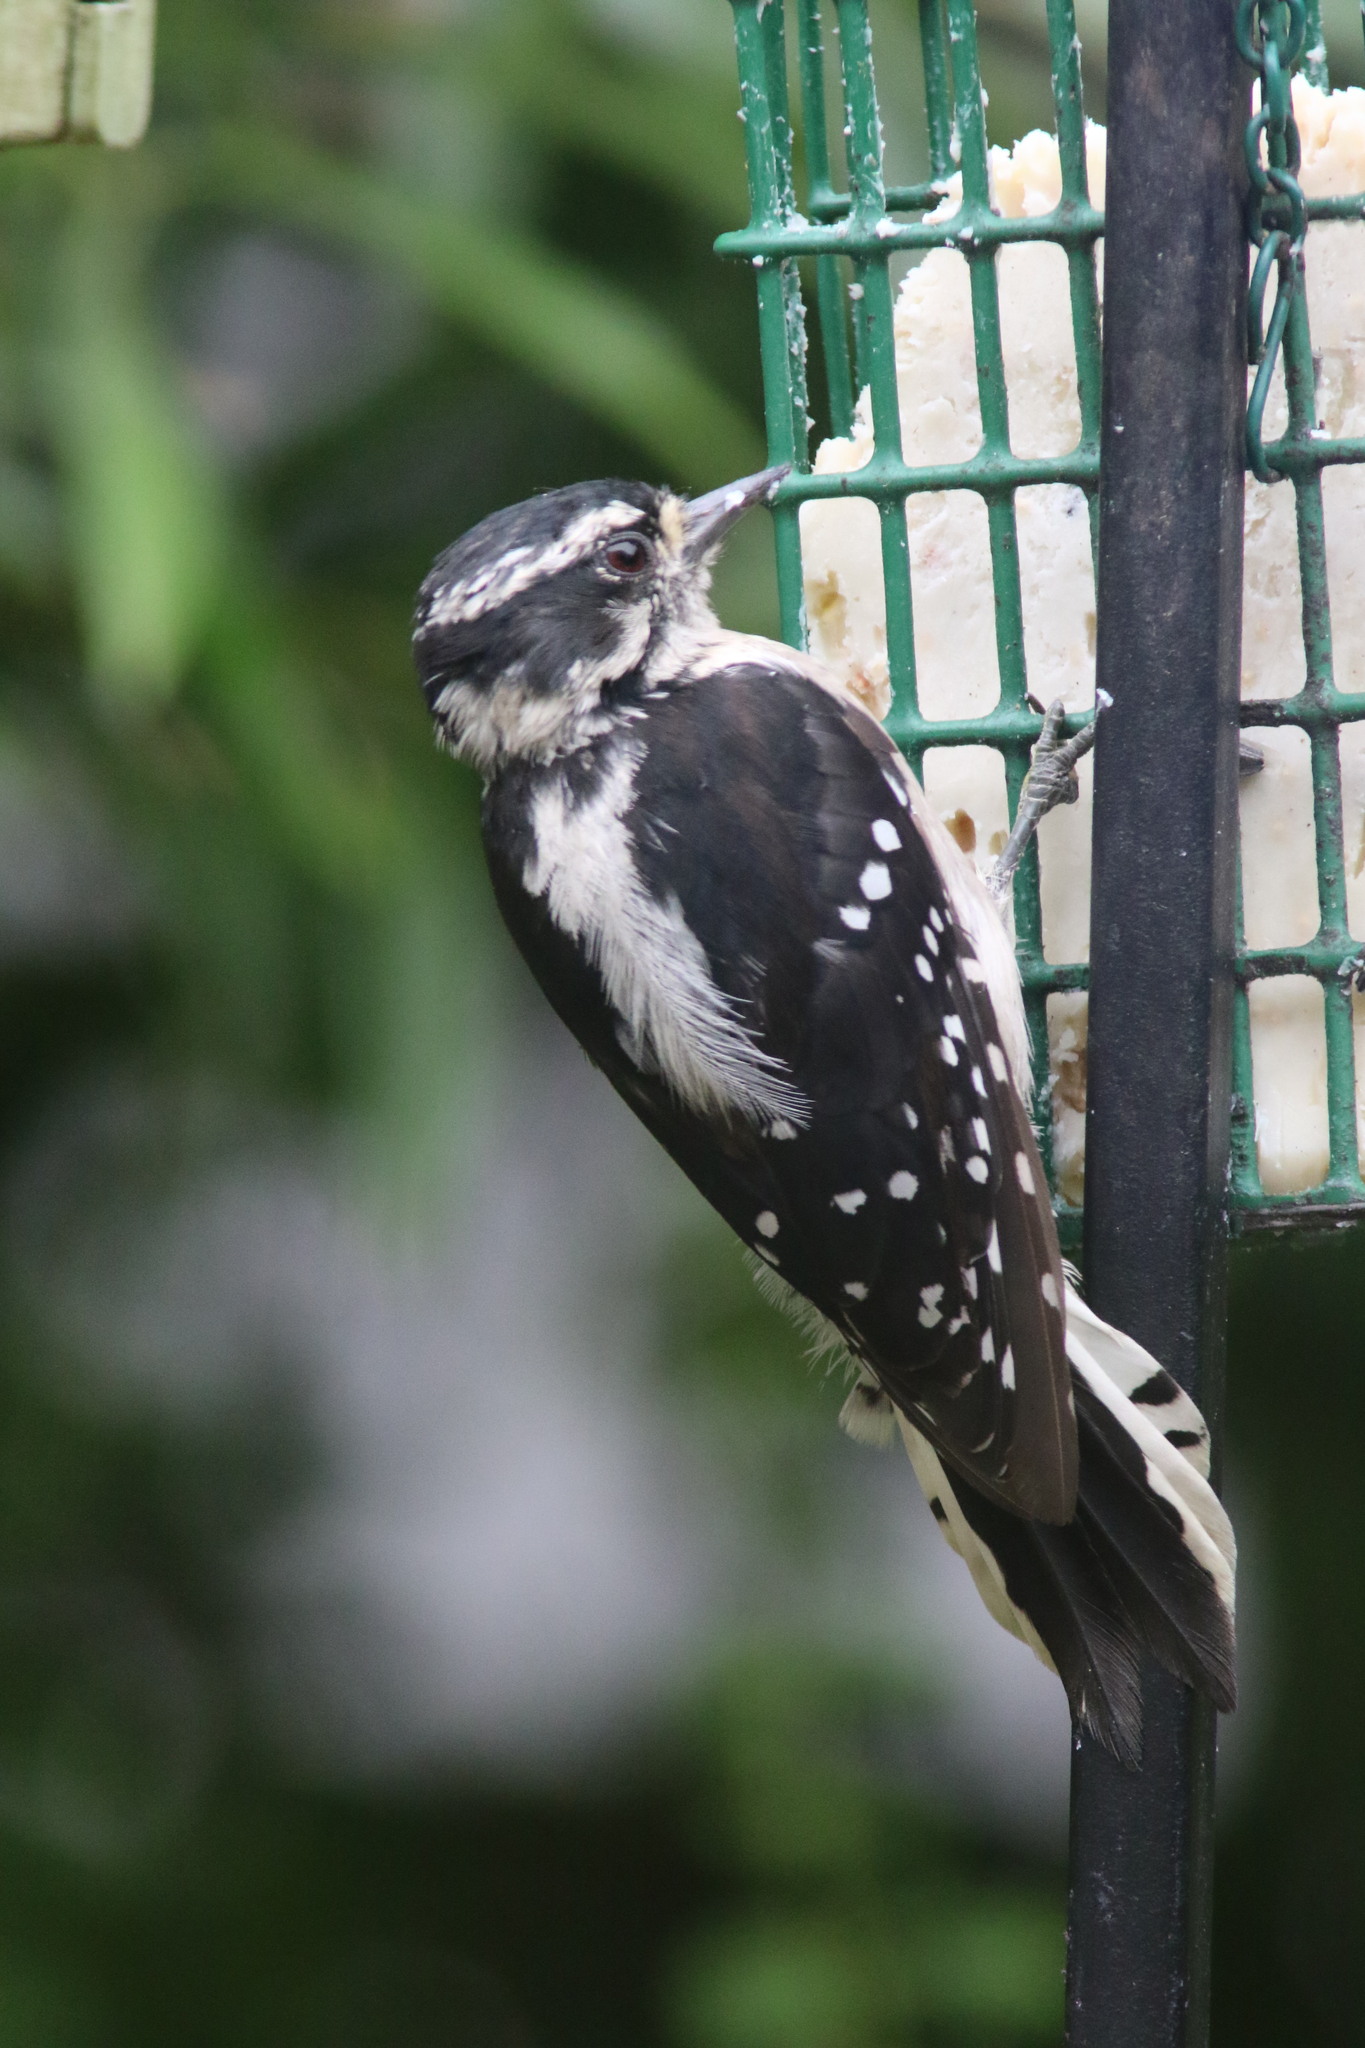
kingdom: Animalia
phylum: Chordata
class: Aves
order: Piciformes
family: Picidae
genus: Dryobates
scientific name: Dryobates pubescens
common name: Downy woodpecker
